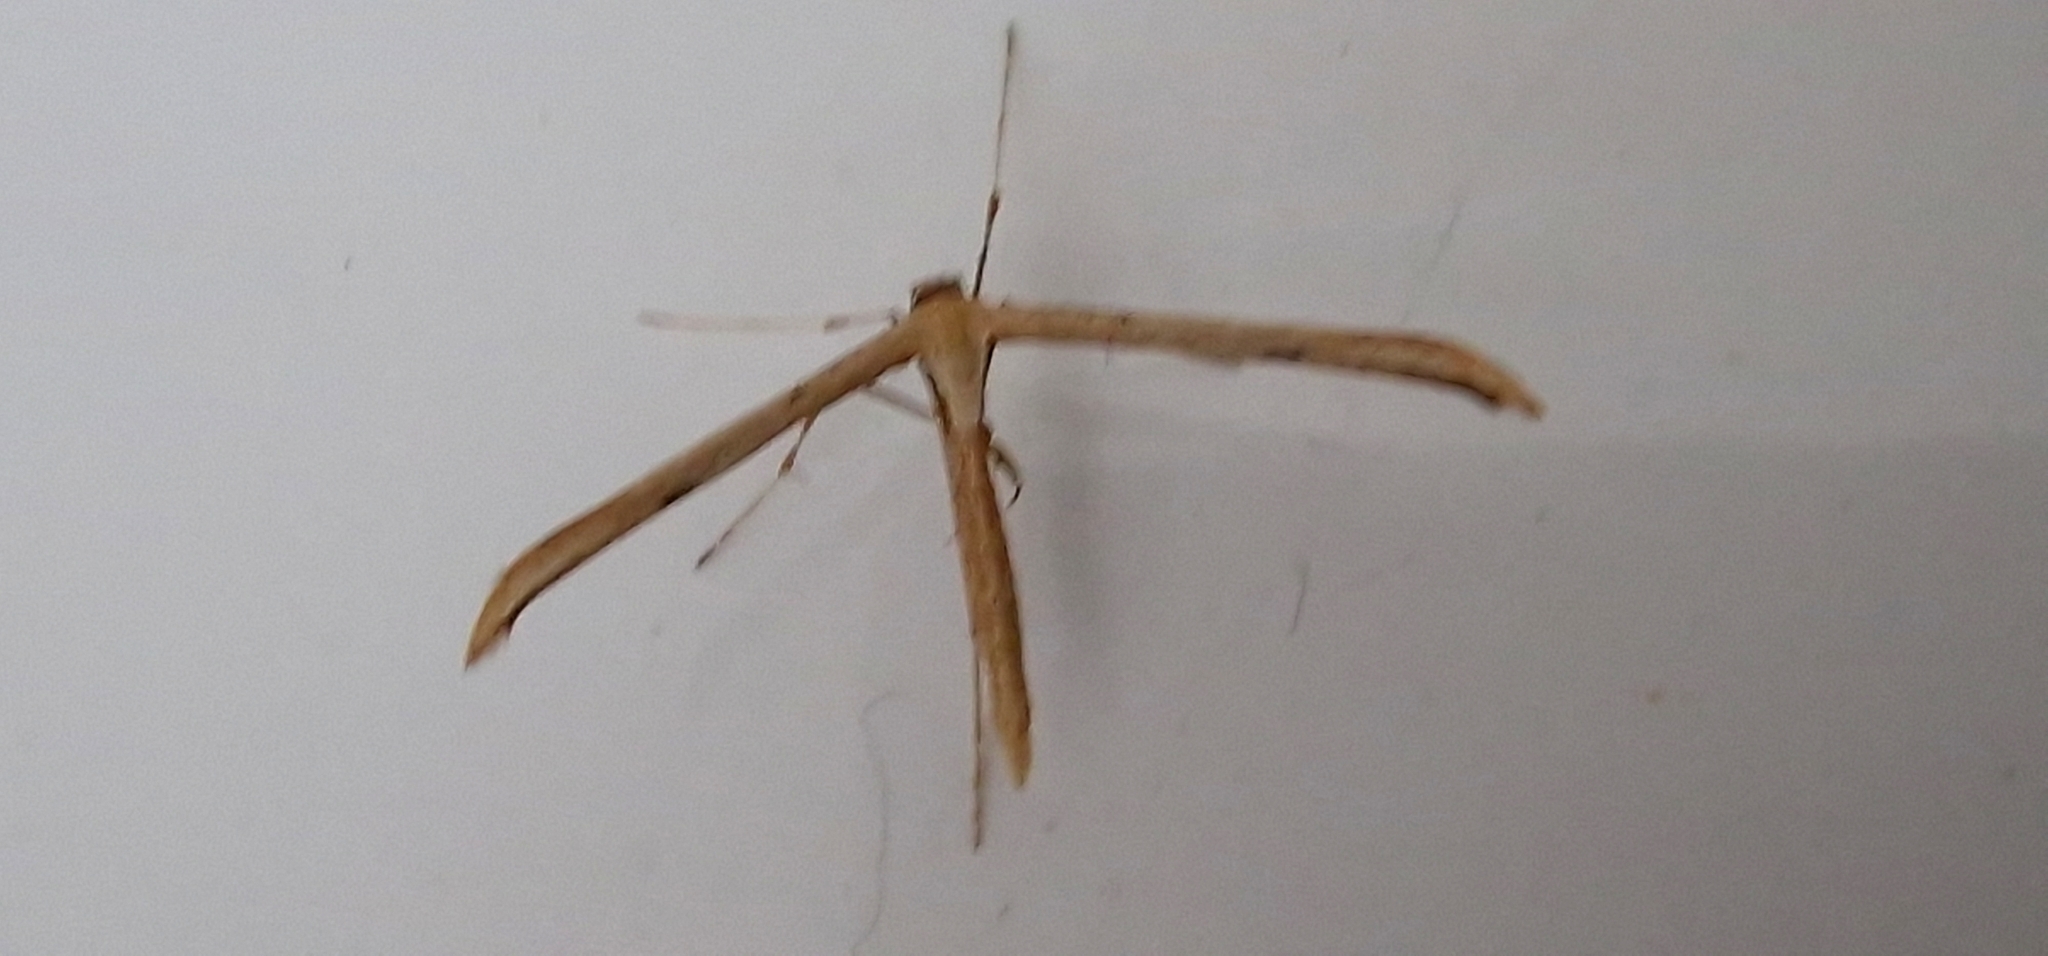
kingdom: Animalia
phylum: Arthropoda
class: Insecta
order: Lepidoptera
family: Pterophoridae
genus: Emmelina
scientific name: Emmelina monodactyla
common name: Common plume
